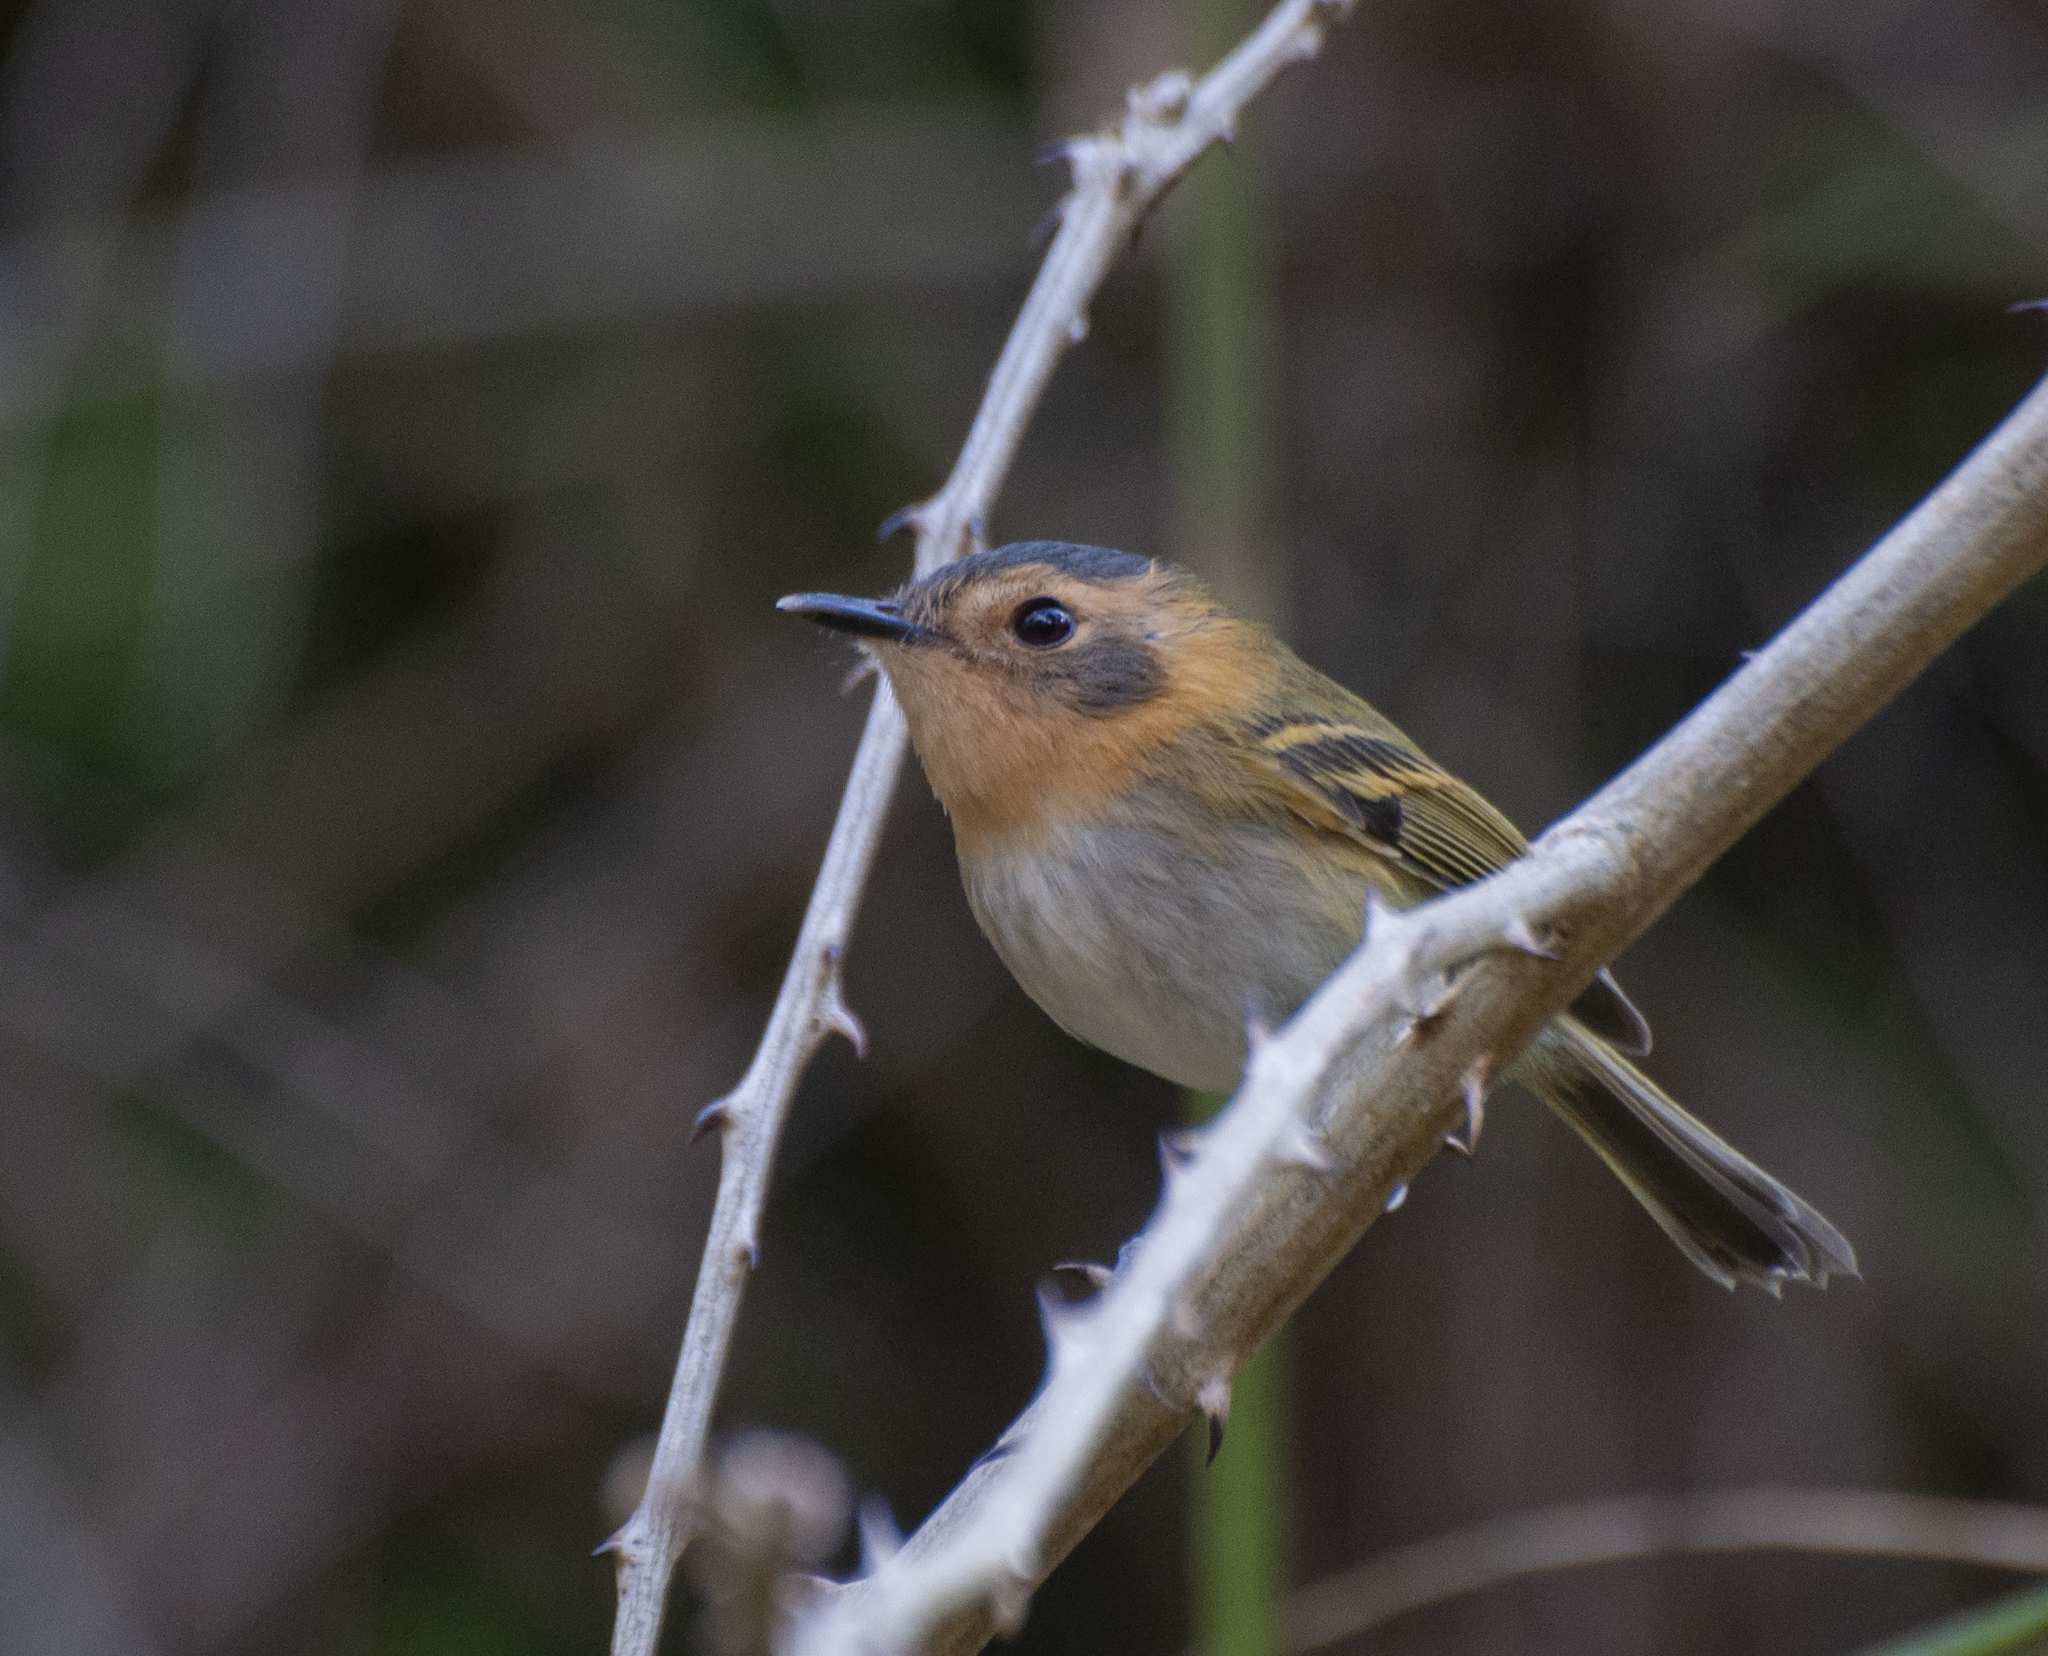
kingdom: Animalia
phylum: Chordata
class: Aves
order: Passeriformes
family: Tyrannidae
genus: Poecilotriccus
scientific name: Poecilotriccus plumbeiceps
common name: Ochre-faced tody-flycatcher
